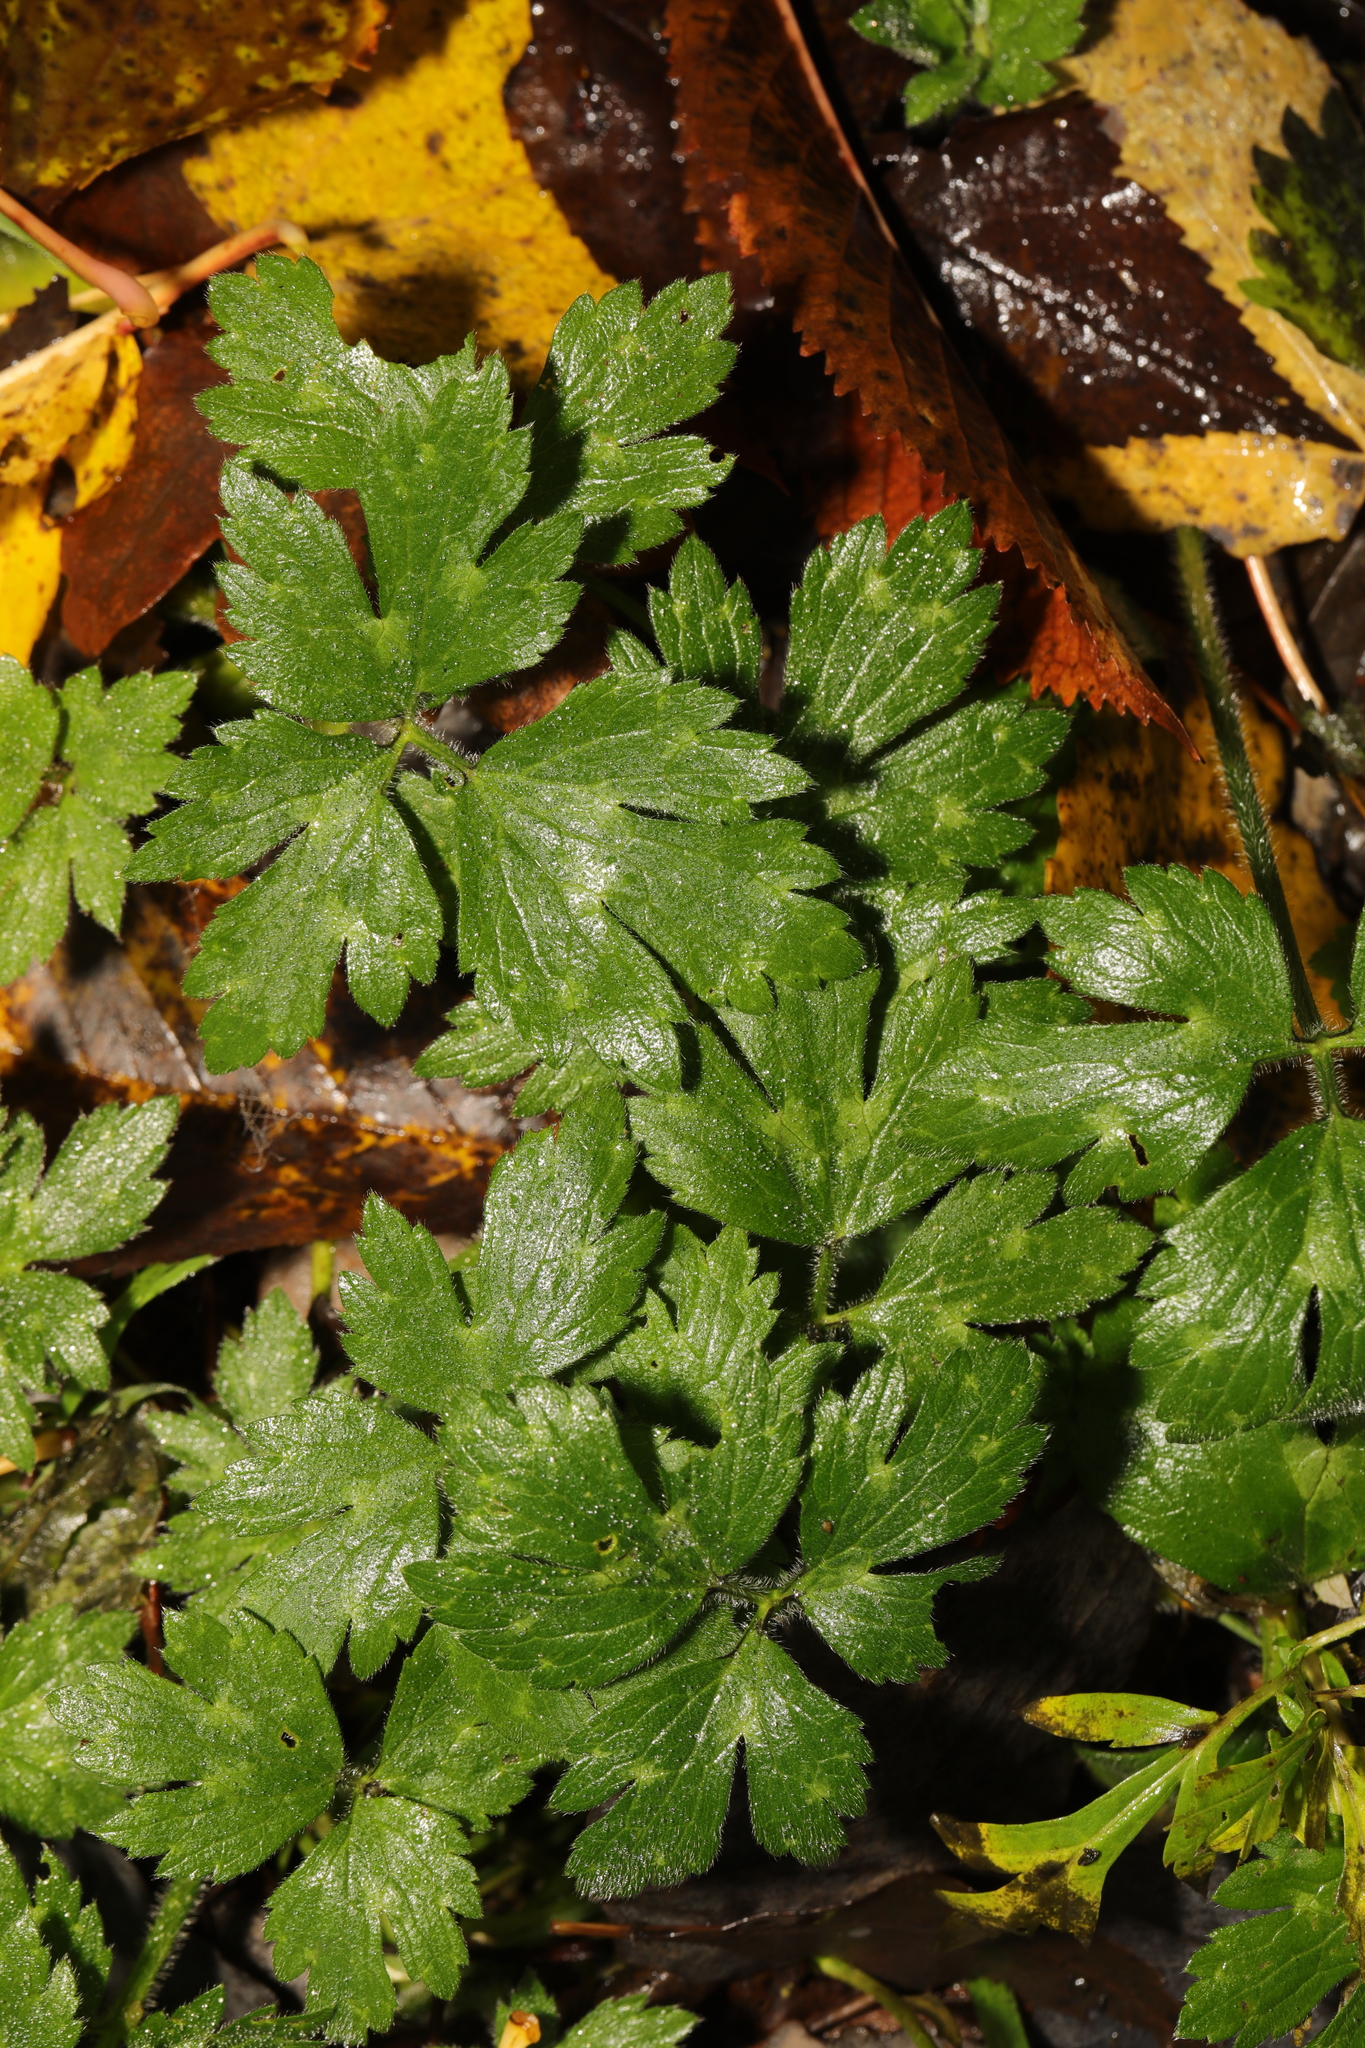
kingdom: Plantae
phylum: Tracheophyta
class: Magnoliopsida
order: Ranunculales
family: Ranunculaceae
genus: Ranunculus
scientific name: Ranunculus repens
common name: Creeping buttercup
